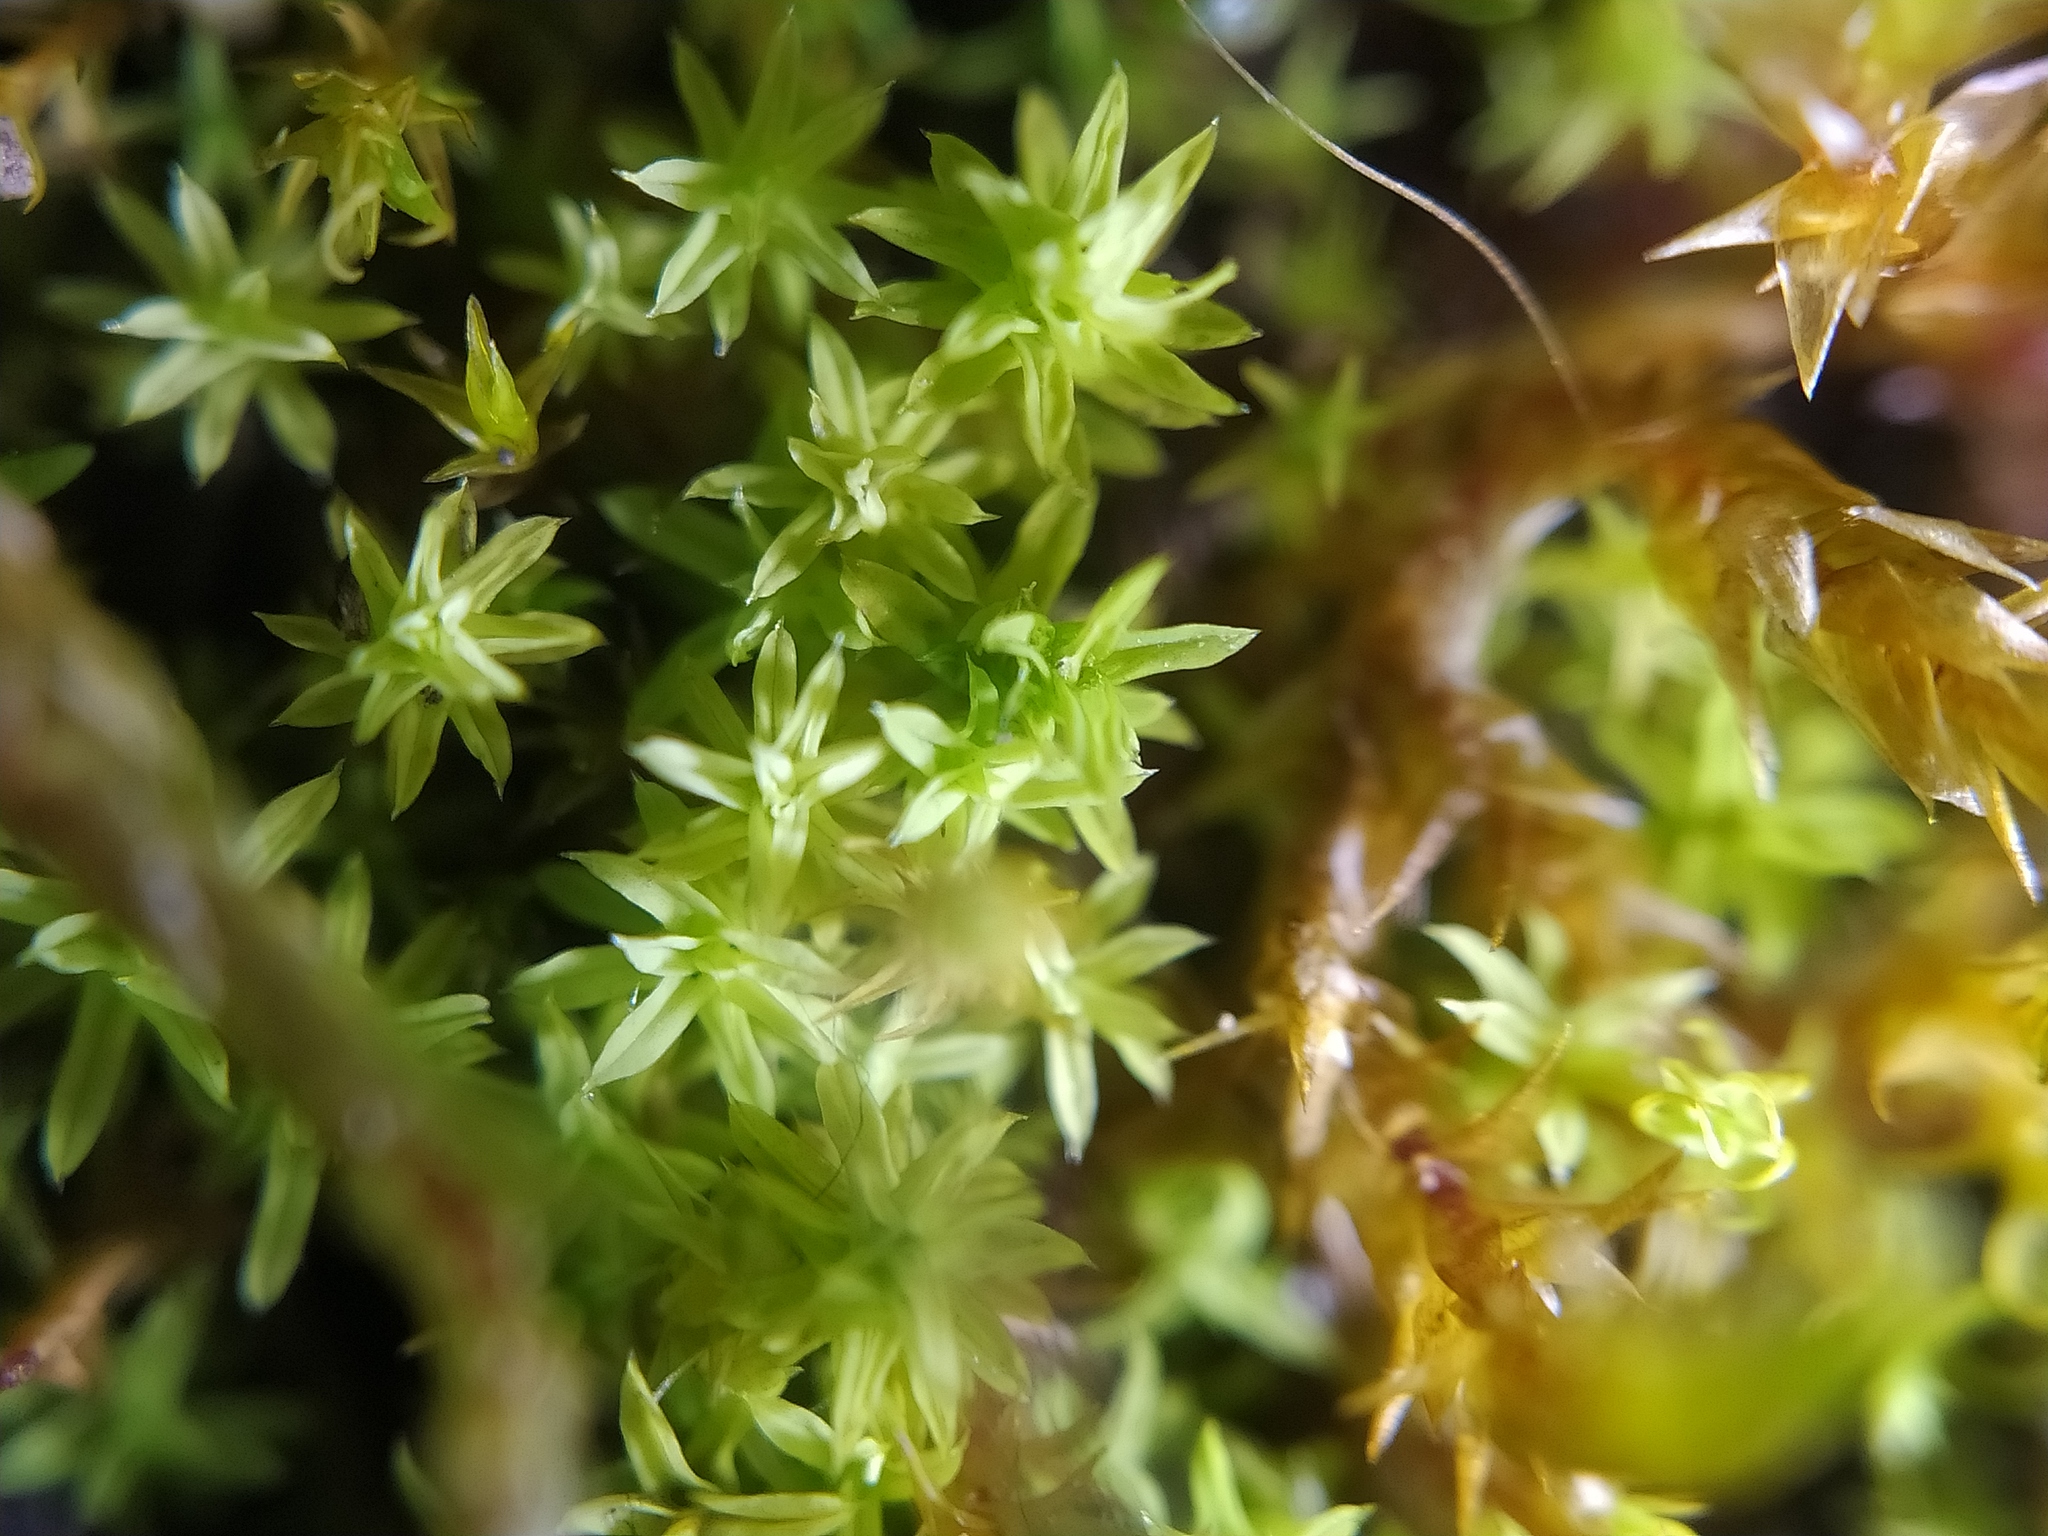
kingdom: Plantae
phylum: Bryophyta
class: Bryopsida
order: Pottiales
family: Pottiaceae
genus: Barbula
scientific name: Barbula unguiculata
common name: Prickly beard moss
